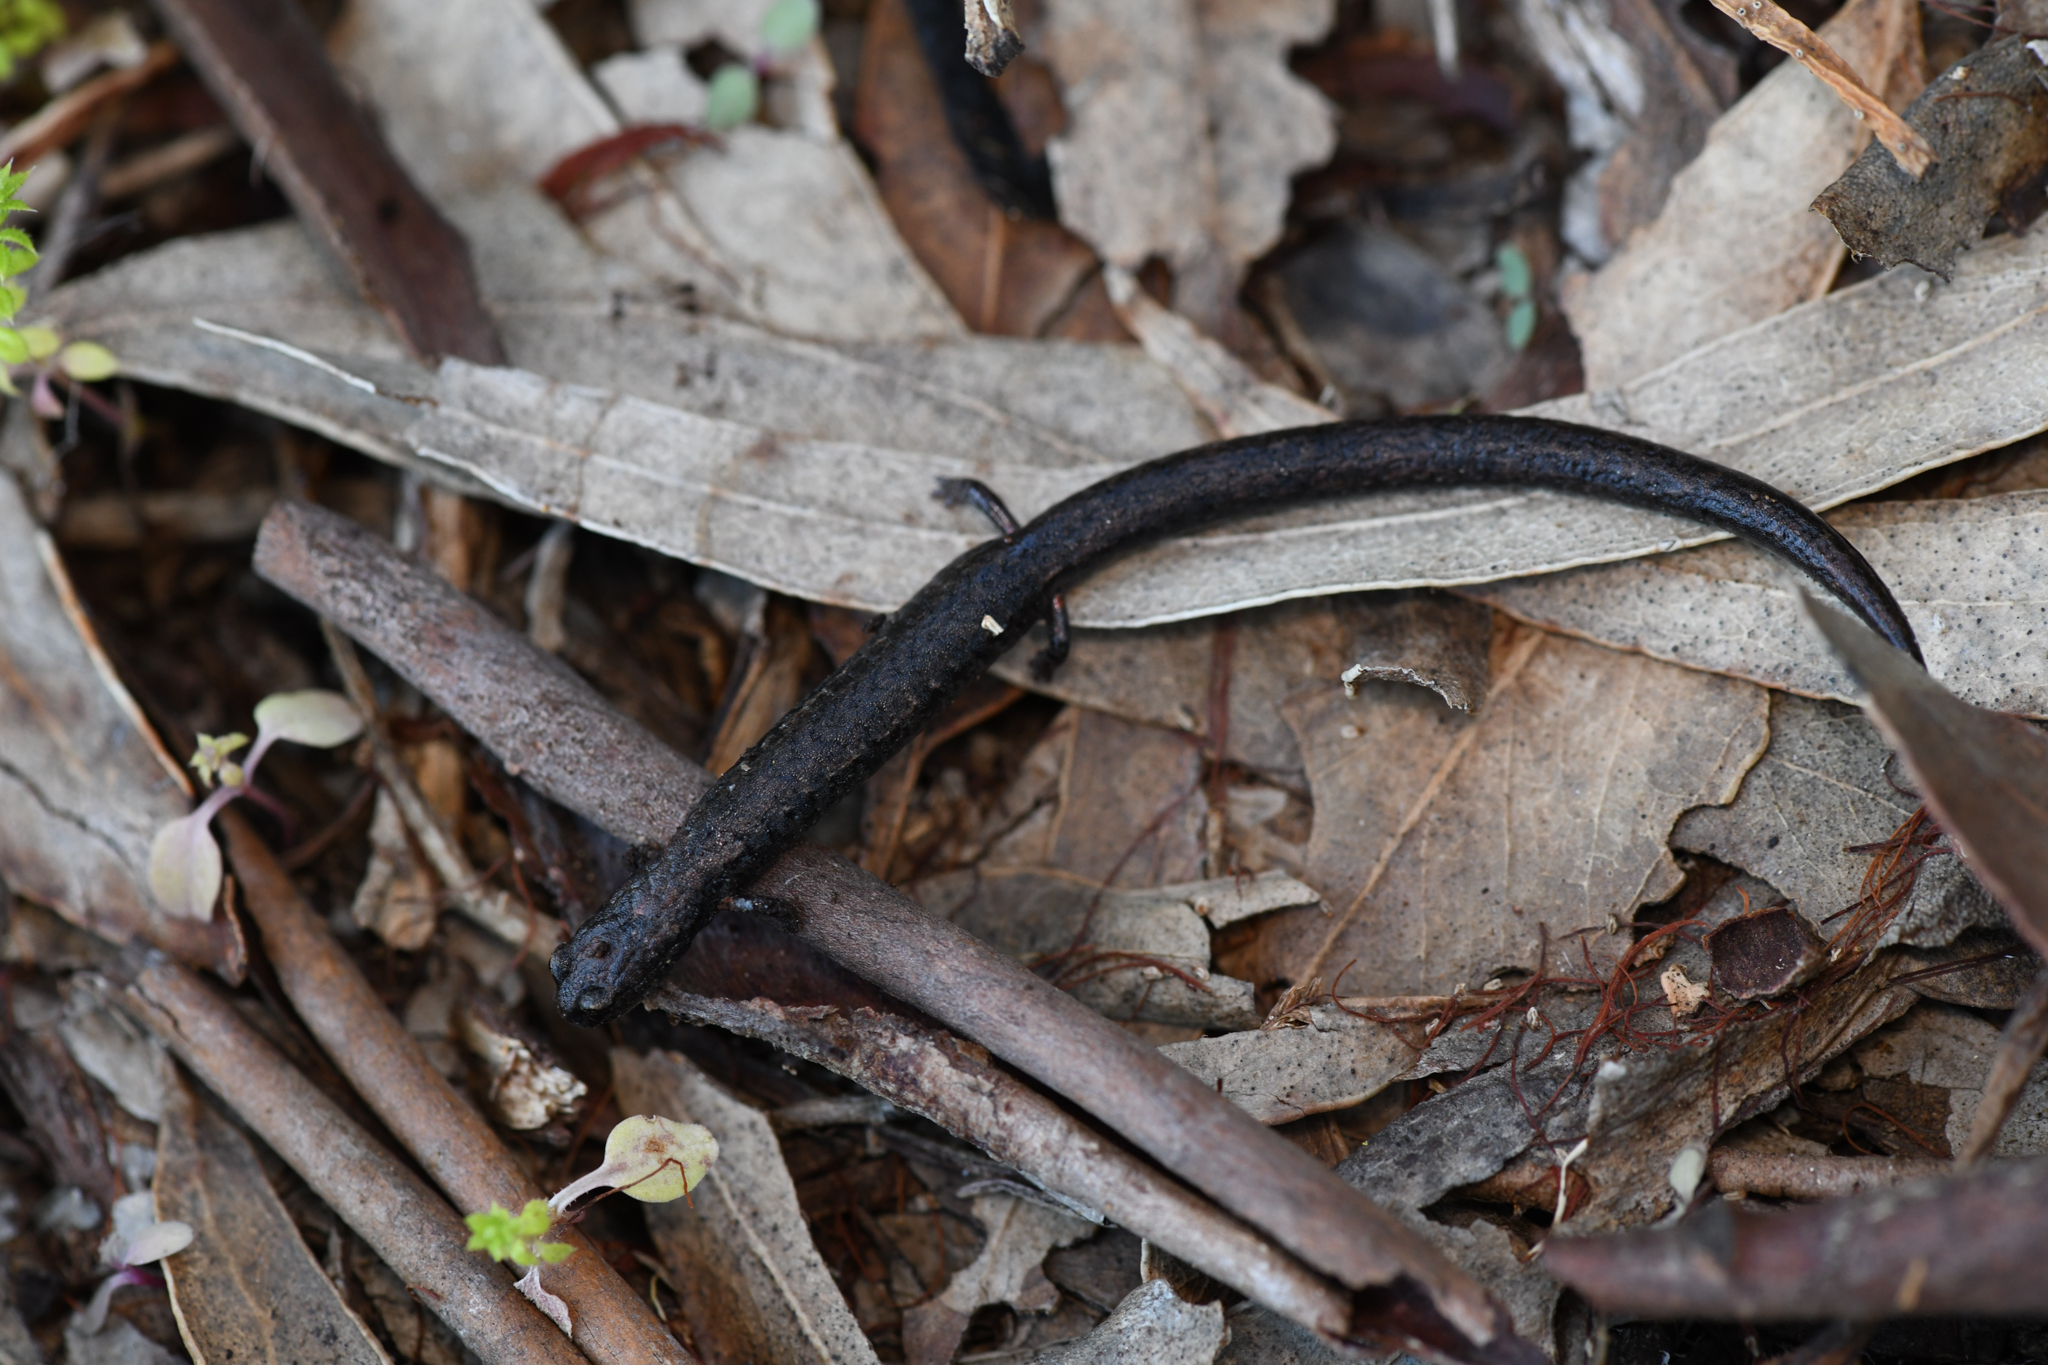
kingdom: Animalia
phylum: Chordata
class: Amphibia
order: Caudata
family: Plethodontidae
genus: Batrachoseps
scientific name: Batrachoseps nigriventris
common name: Black-bellied slender salamander
